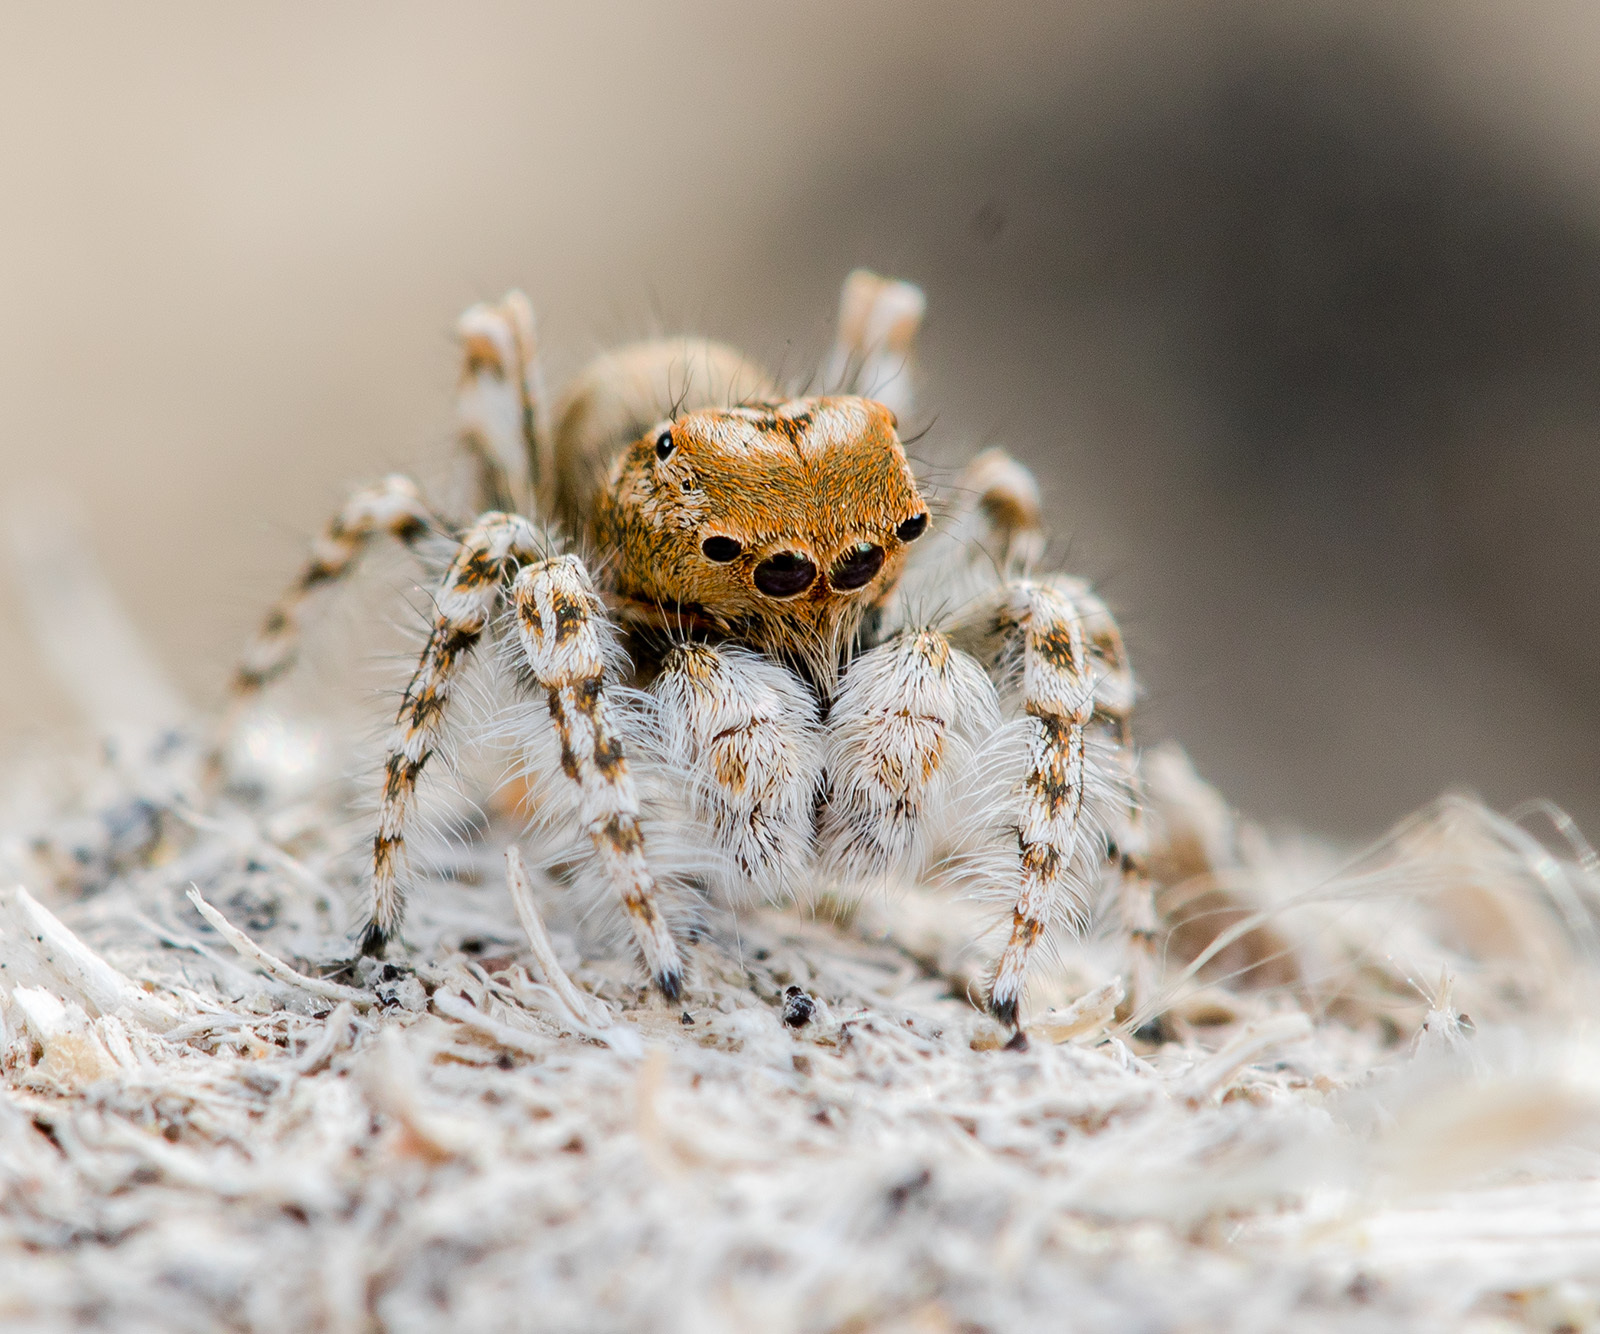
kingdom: Animalia
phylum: Arthropoda
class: Arachnida
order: Araneae
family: Salticidae
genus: Yllenus
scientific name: Yllenus uiguricus
